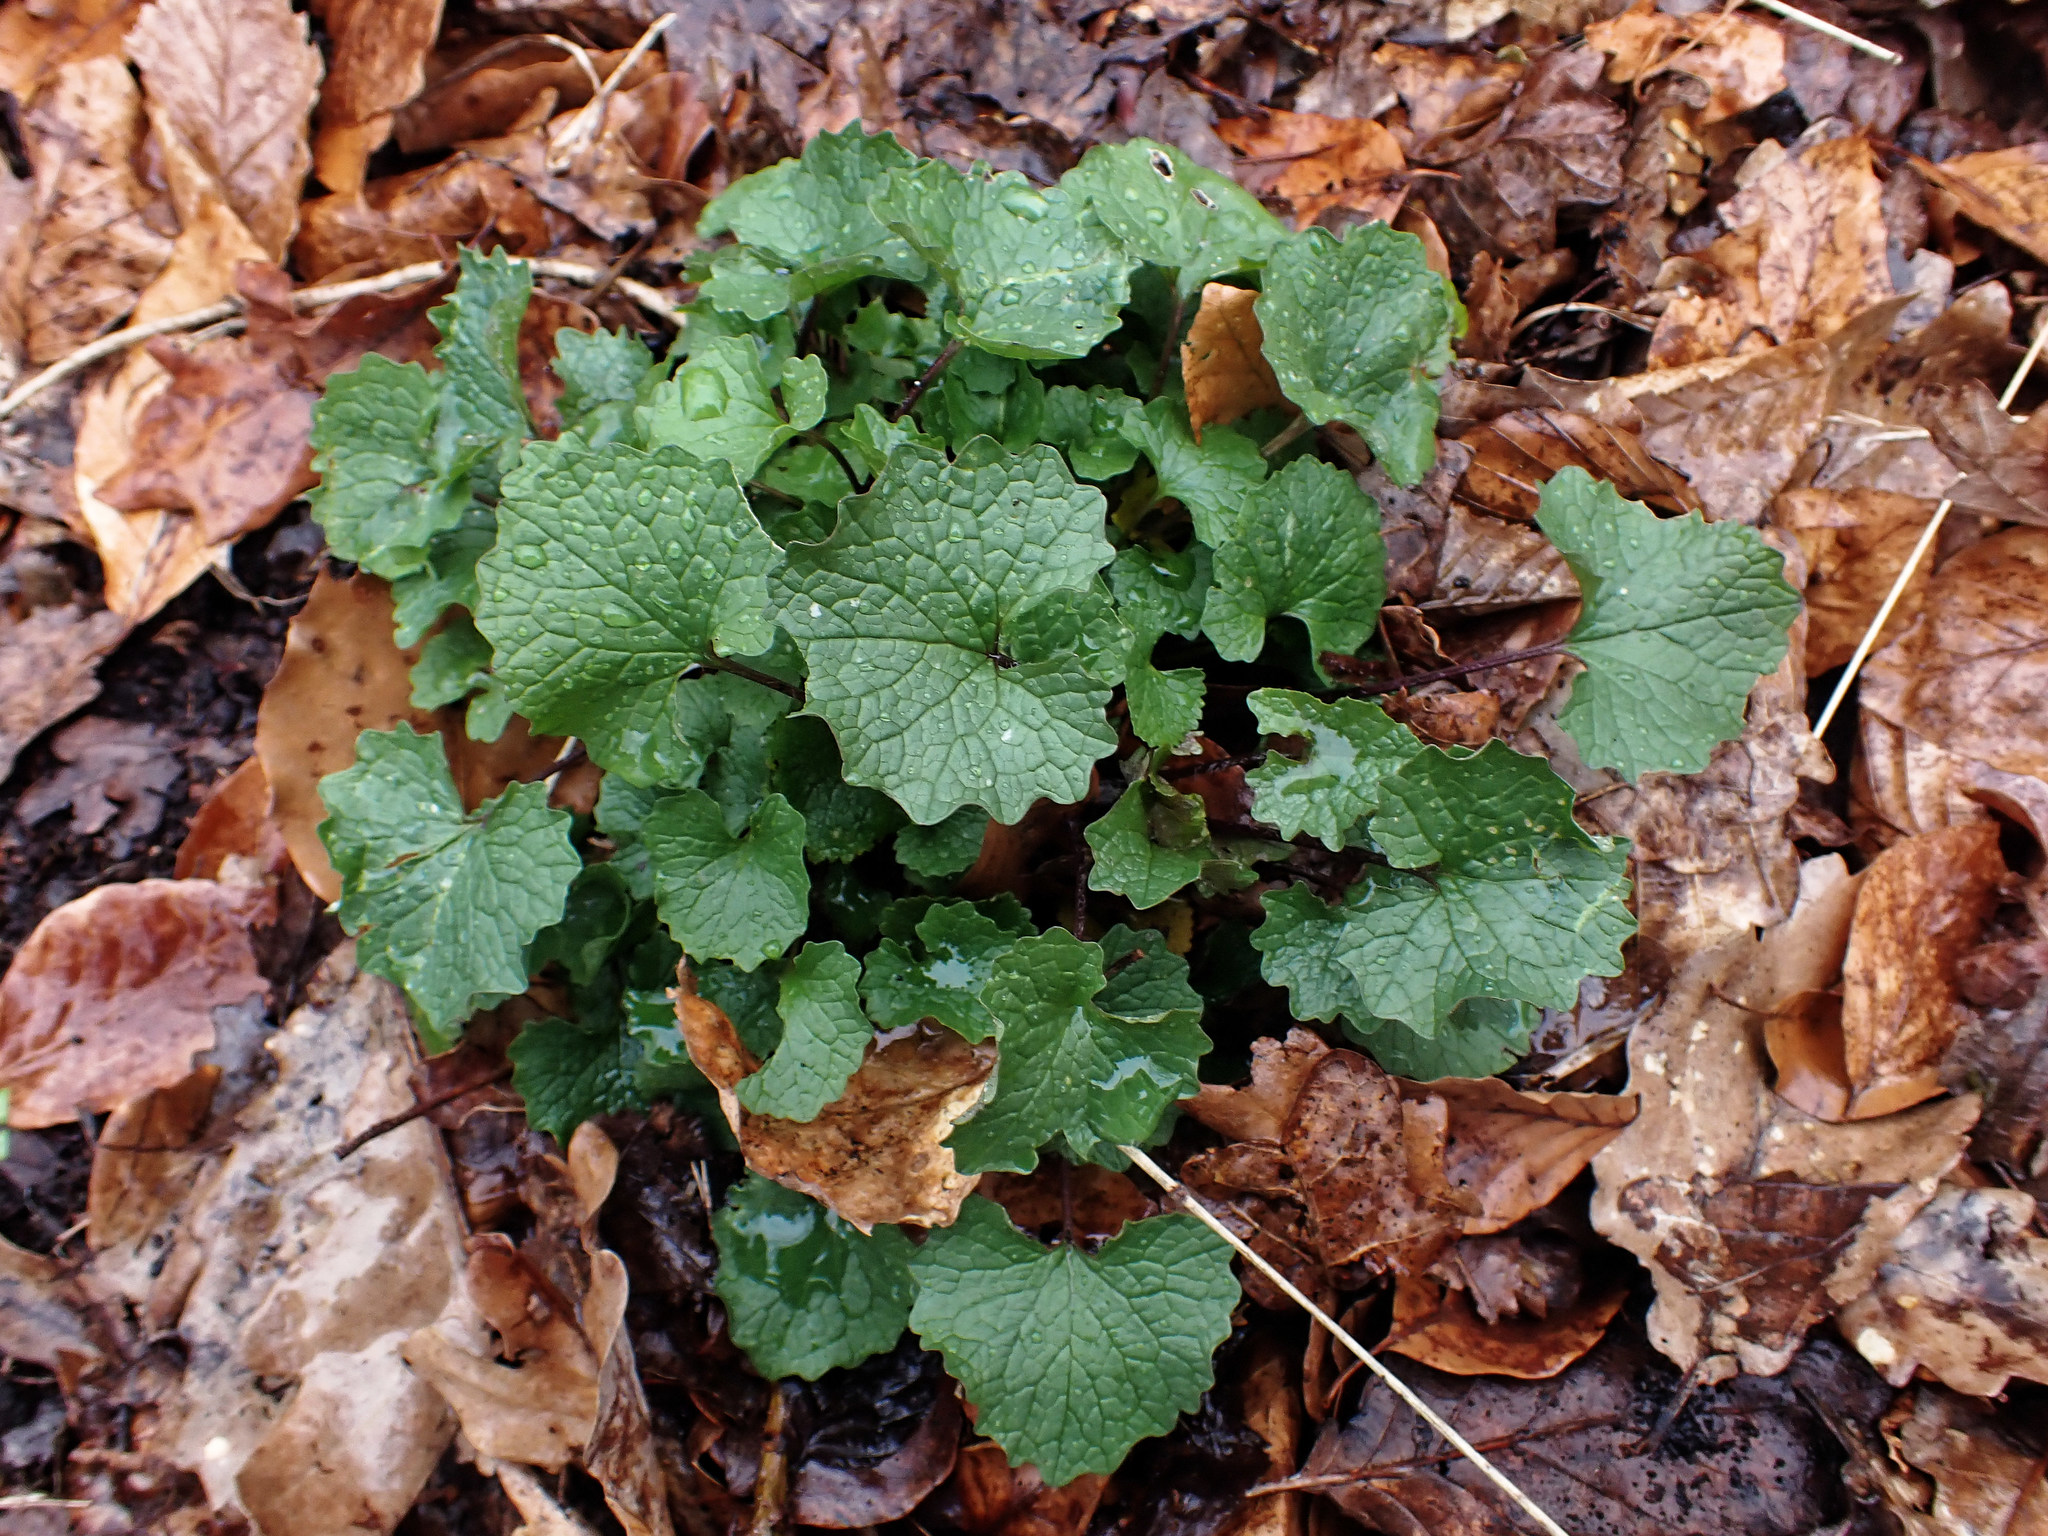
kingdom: Plantae
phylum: Tracheophyta
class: Magnoliopsida
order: Brassicales
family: Brassicaceae
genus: Alliaria
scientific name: Alliaria petiolata
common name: Garlic mustard
